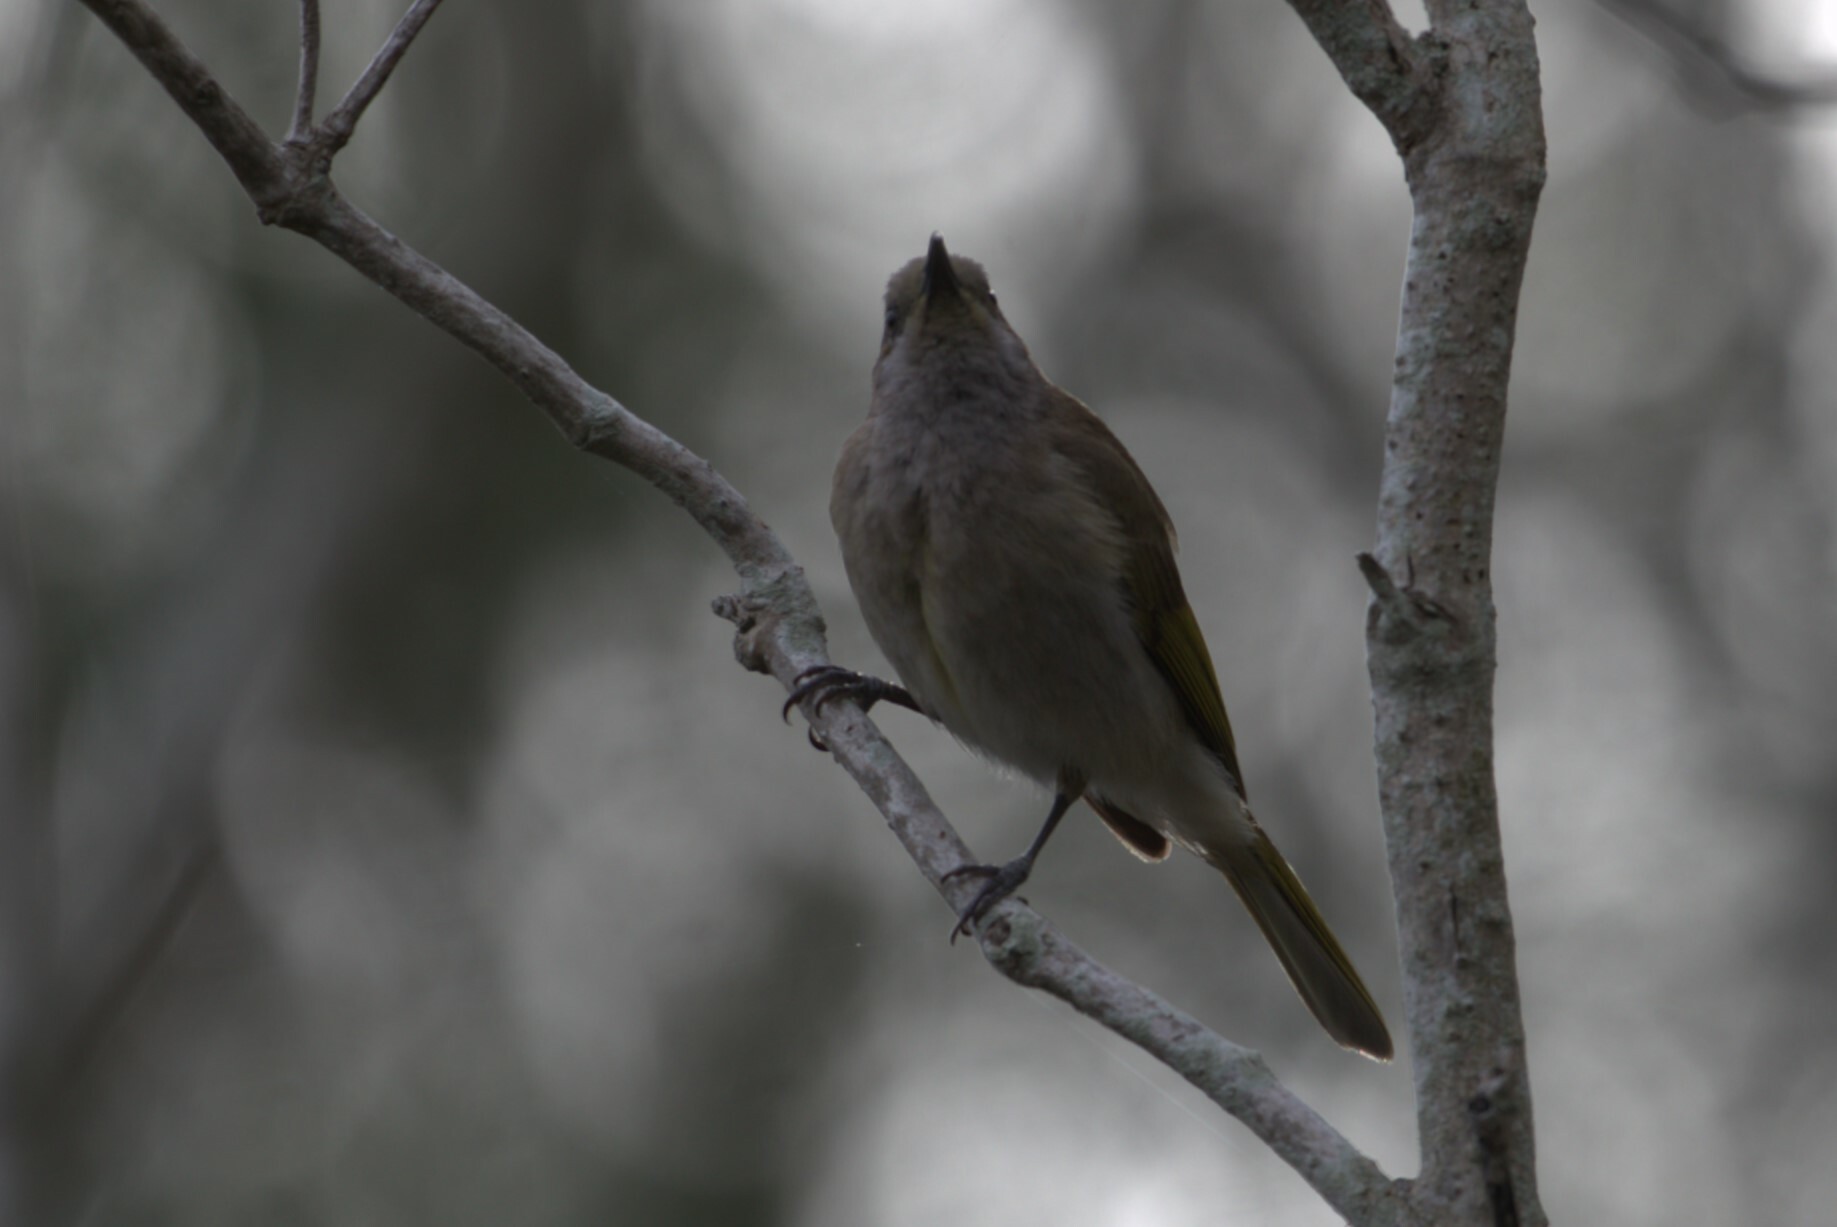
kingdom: Animalia
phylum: Chordata
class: Aves
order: Passeriformes
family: Meliphagidae
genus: Lichmera
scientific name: Lichmera indistincta
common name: Brown honeyeater
